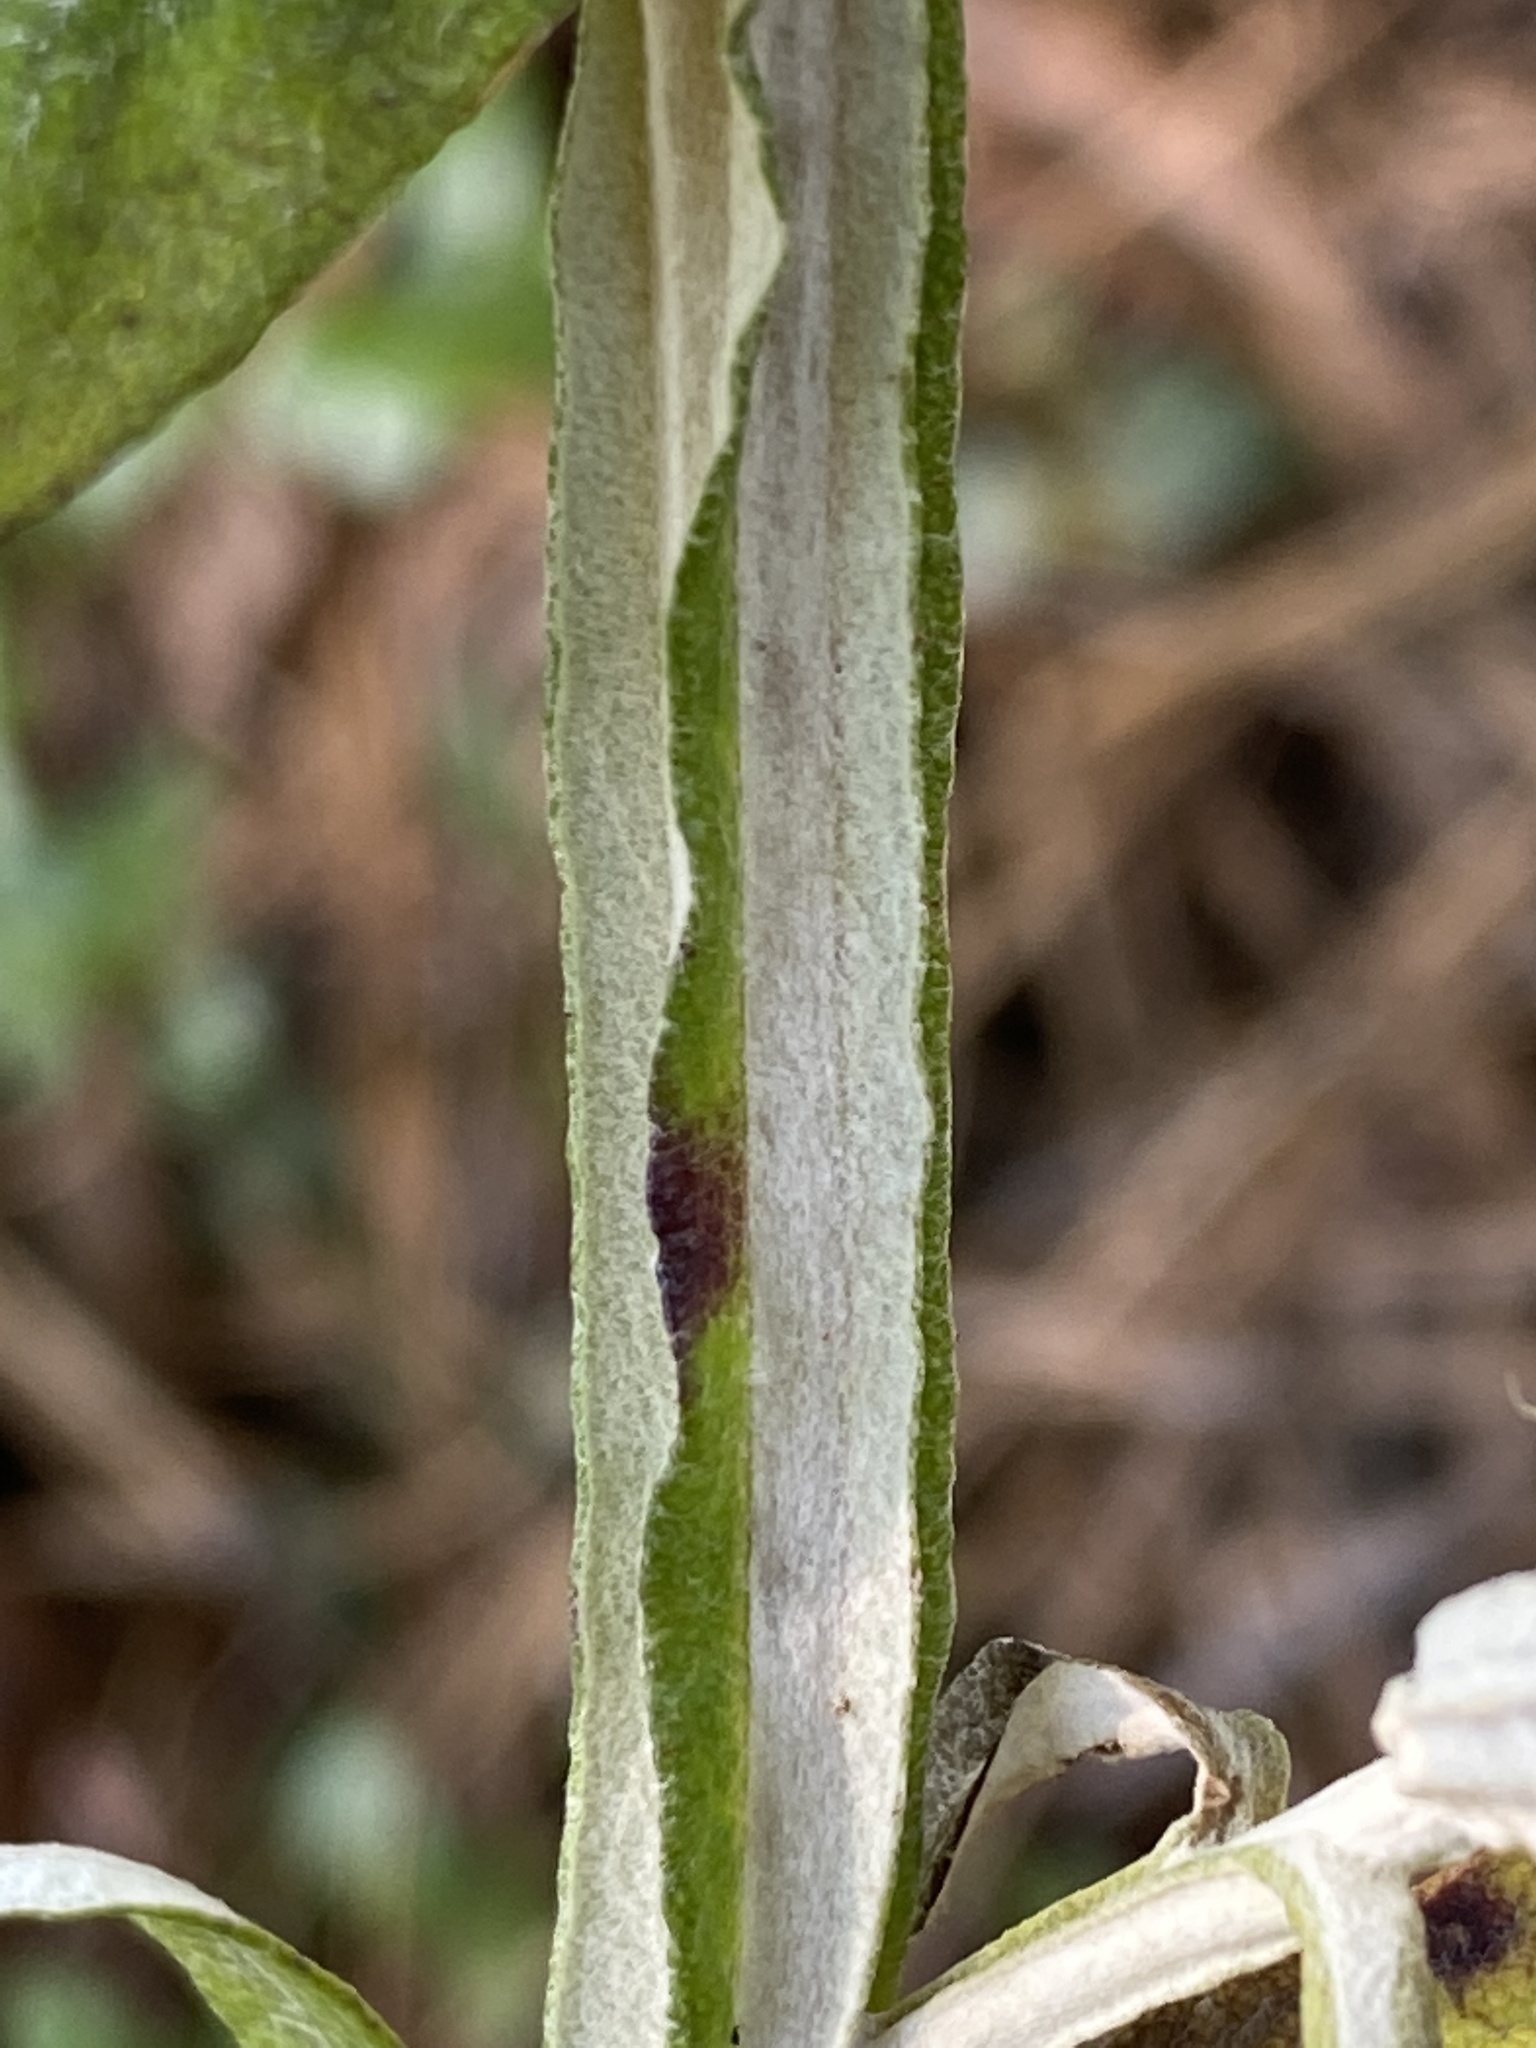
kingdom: Plantae
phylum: Tracheophyta
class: Magnoliopsida
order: Asterales
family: Asteraceae
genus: Pterocaulon
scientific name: Pterocaulon pycnostachyum
